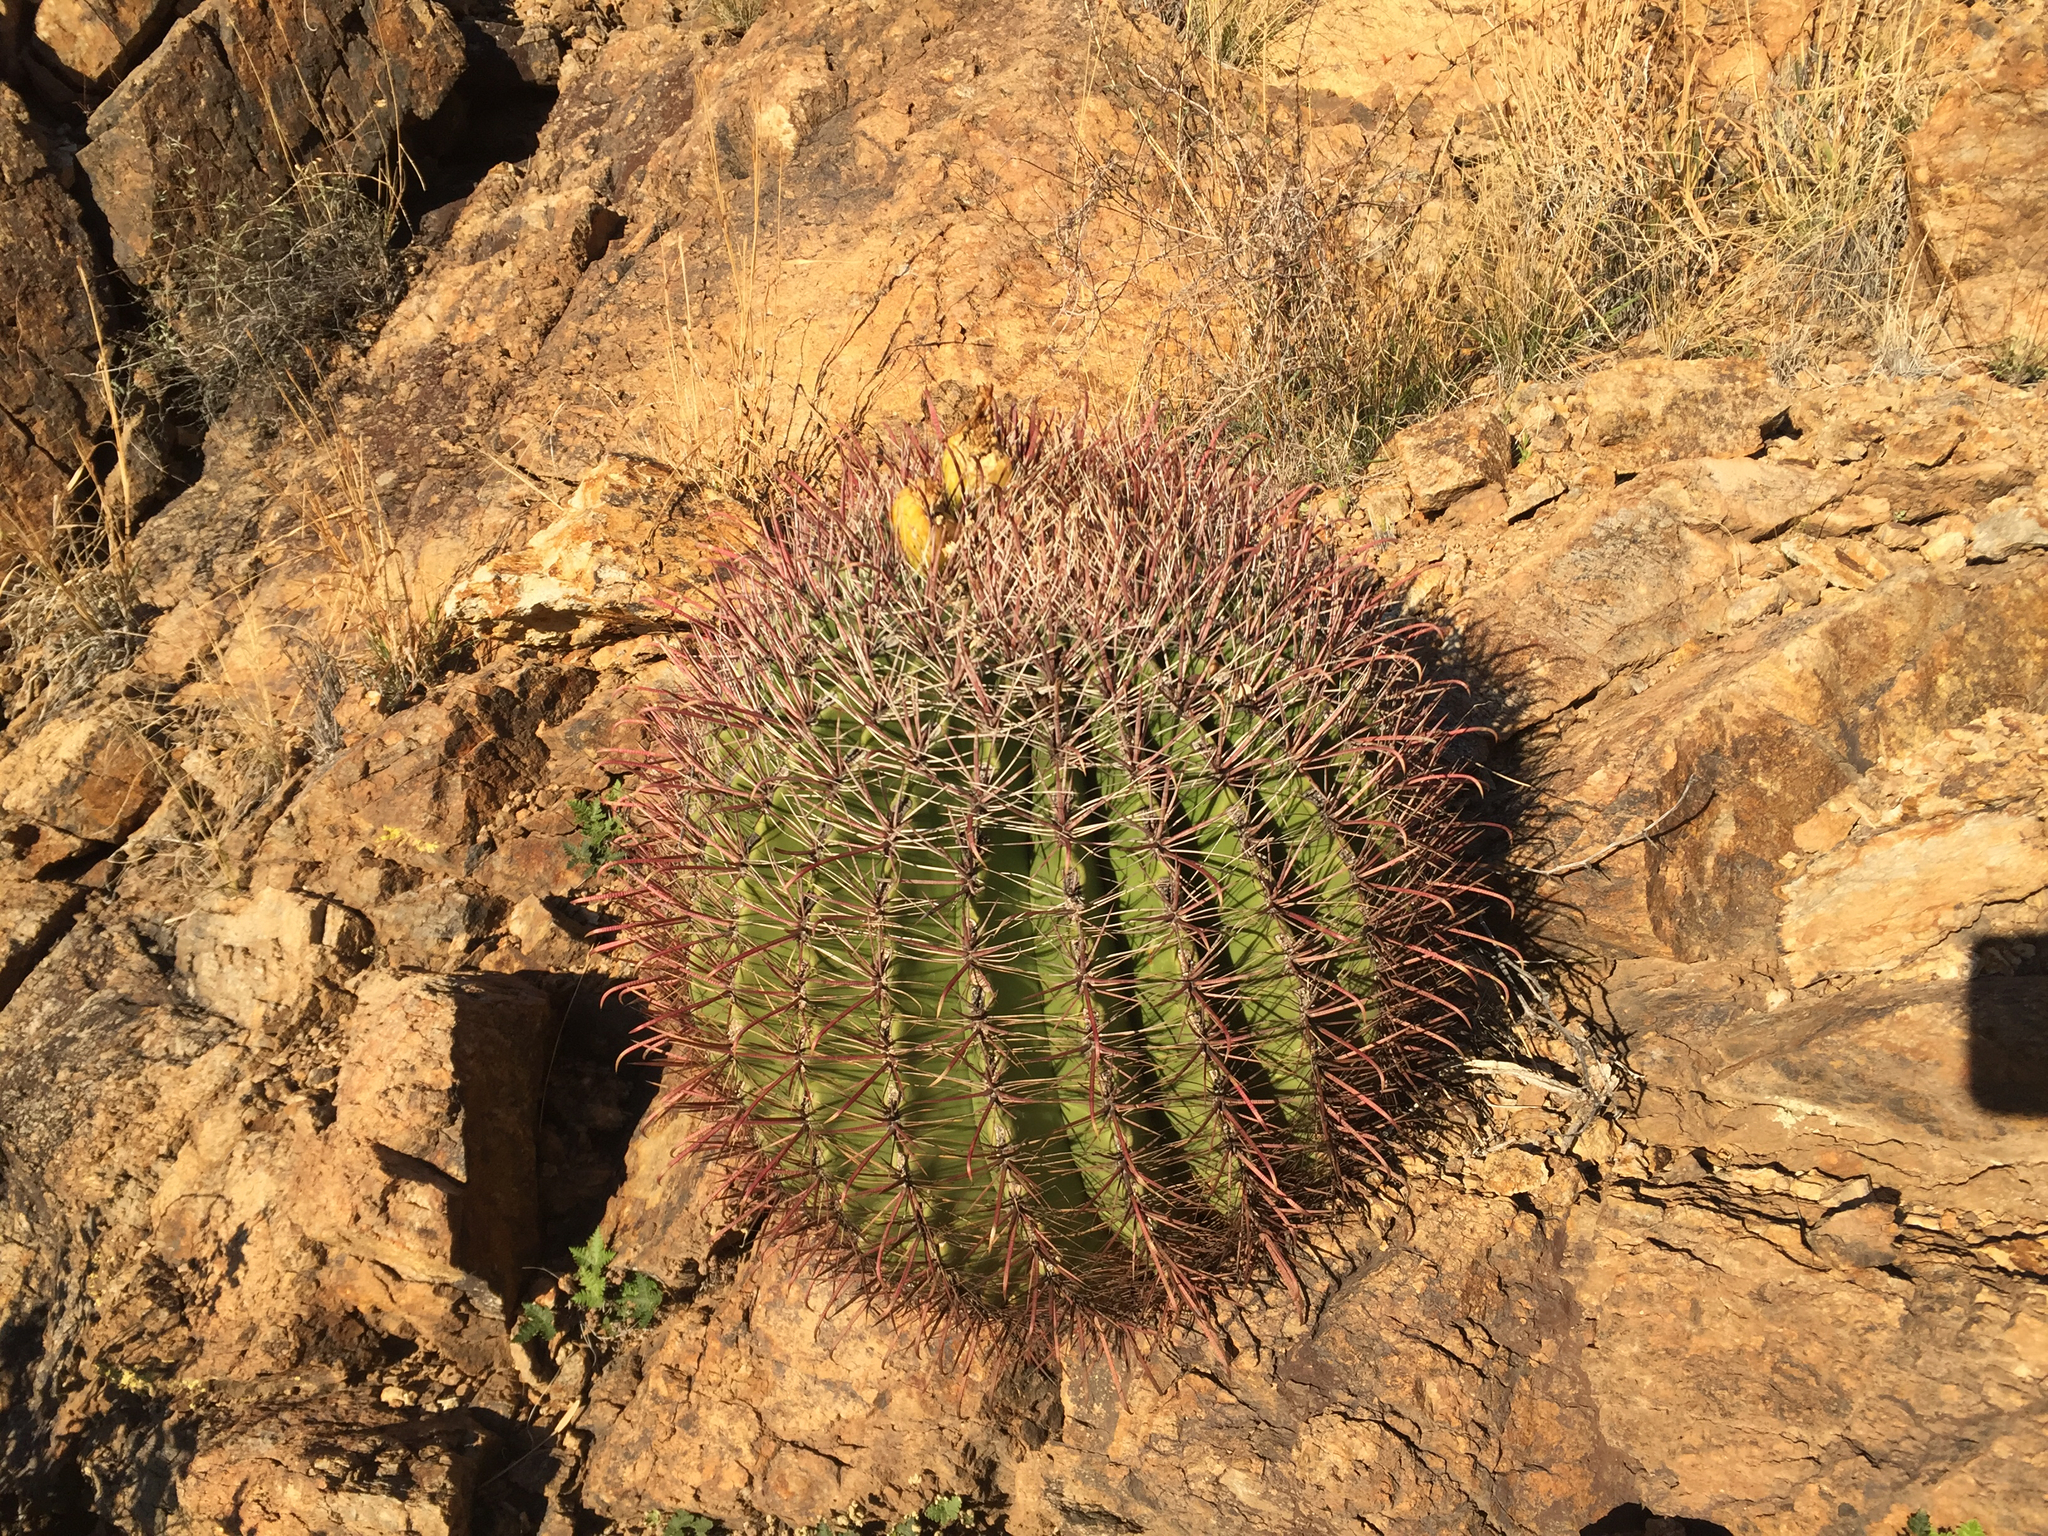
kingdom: Plantae
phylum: Tracheophyta
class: Magnoliopsida
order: Caryophyllales
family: Cactaceae
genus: Ferocactus
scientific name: Ferocactus wislizeni
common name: Candy barrel cactus
